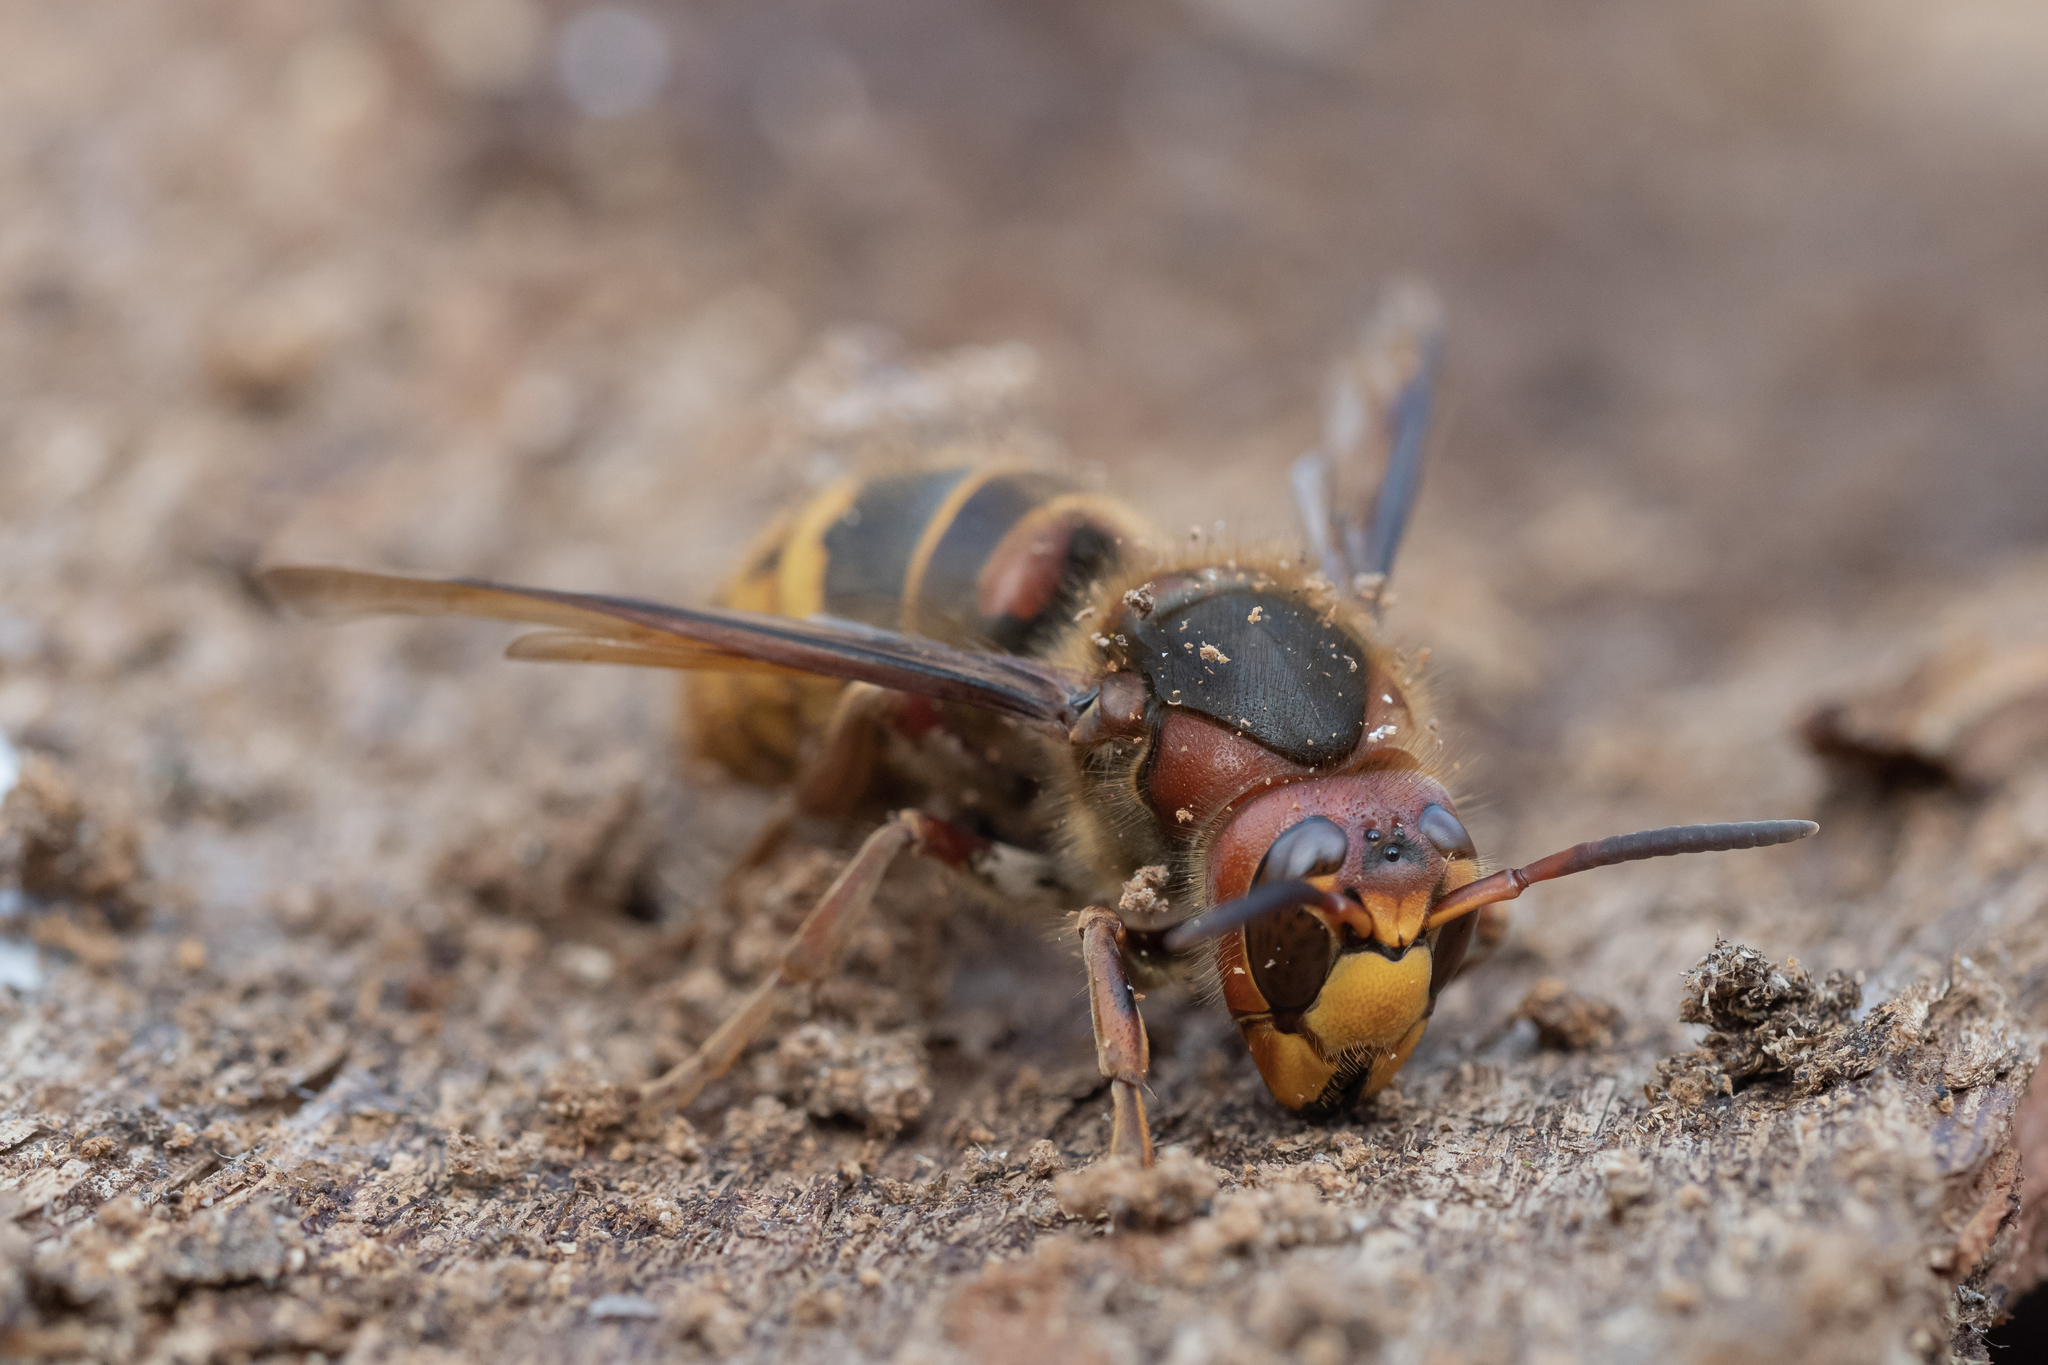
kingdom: Animalia
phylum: Arthropoda
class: Insecta
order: Hymenoptera
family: Vespidae
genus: Vespa
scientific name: Vespa crabro
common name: Hornet
